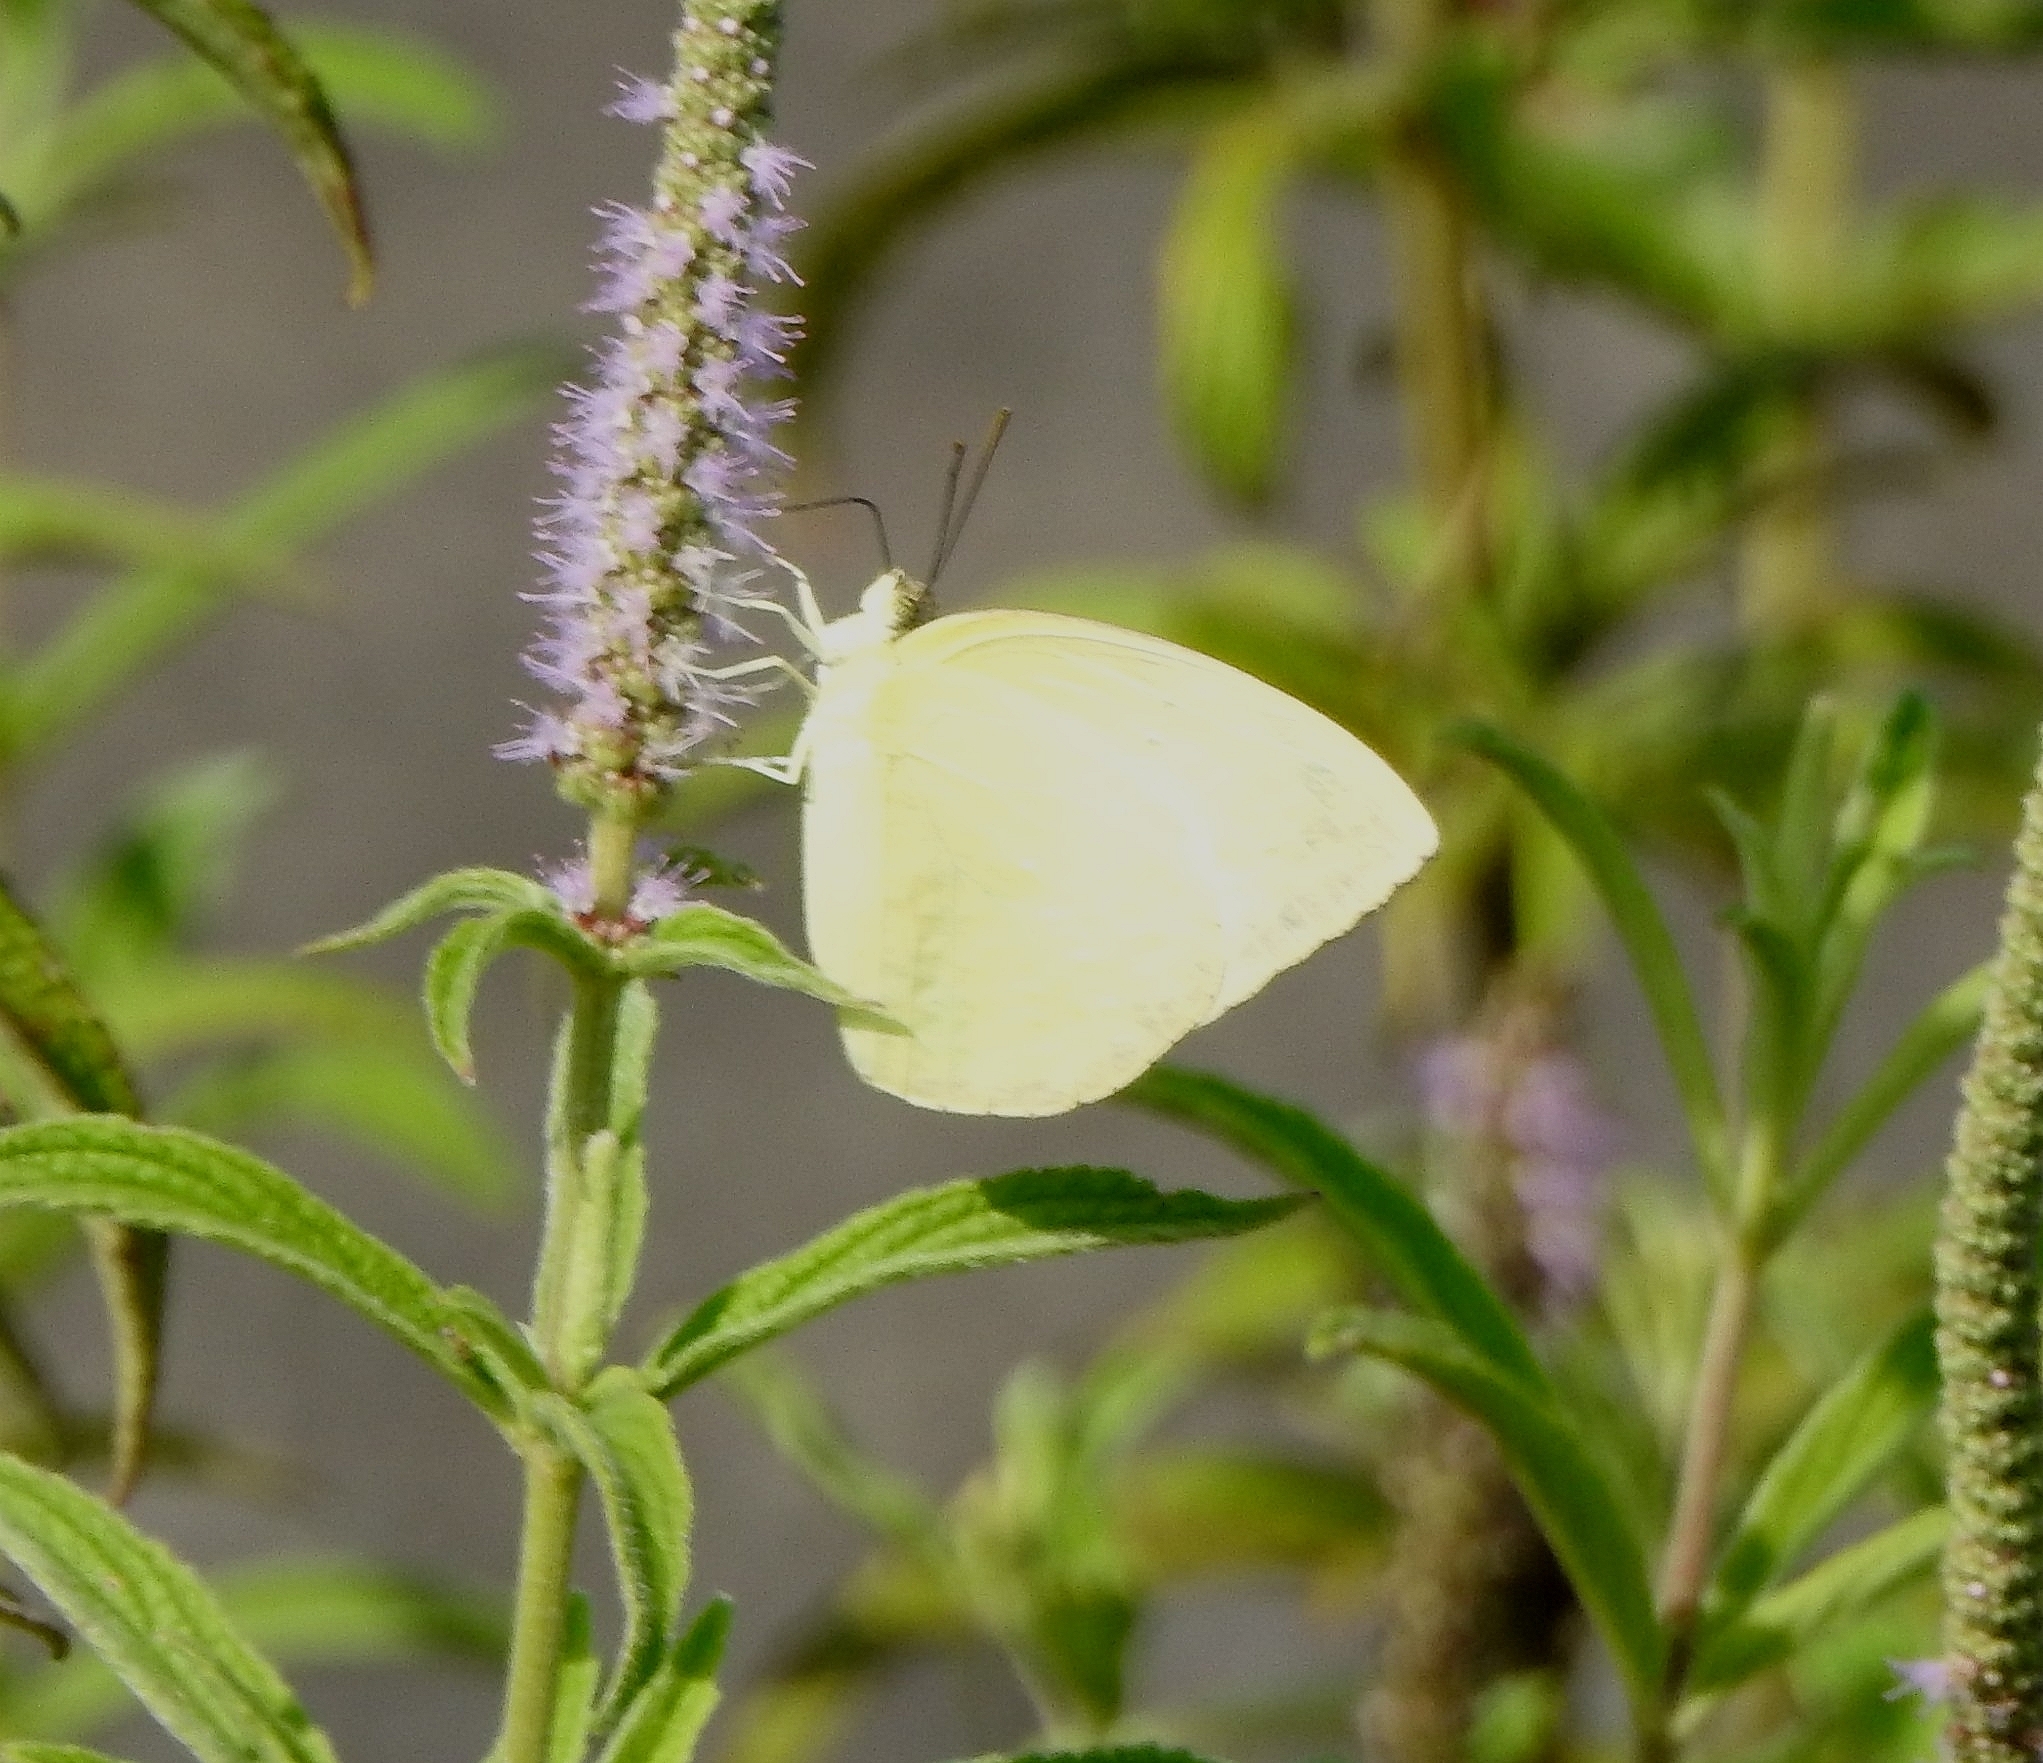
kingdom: Animalia
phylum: Arthropoda
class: Insecta
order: Lepidoptera
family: Pieridae
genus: Catopsilia
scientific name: Catopsilia pomona
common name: Common emigrant
